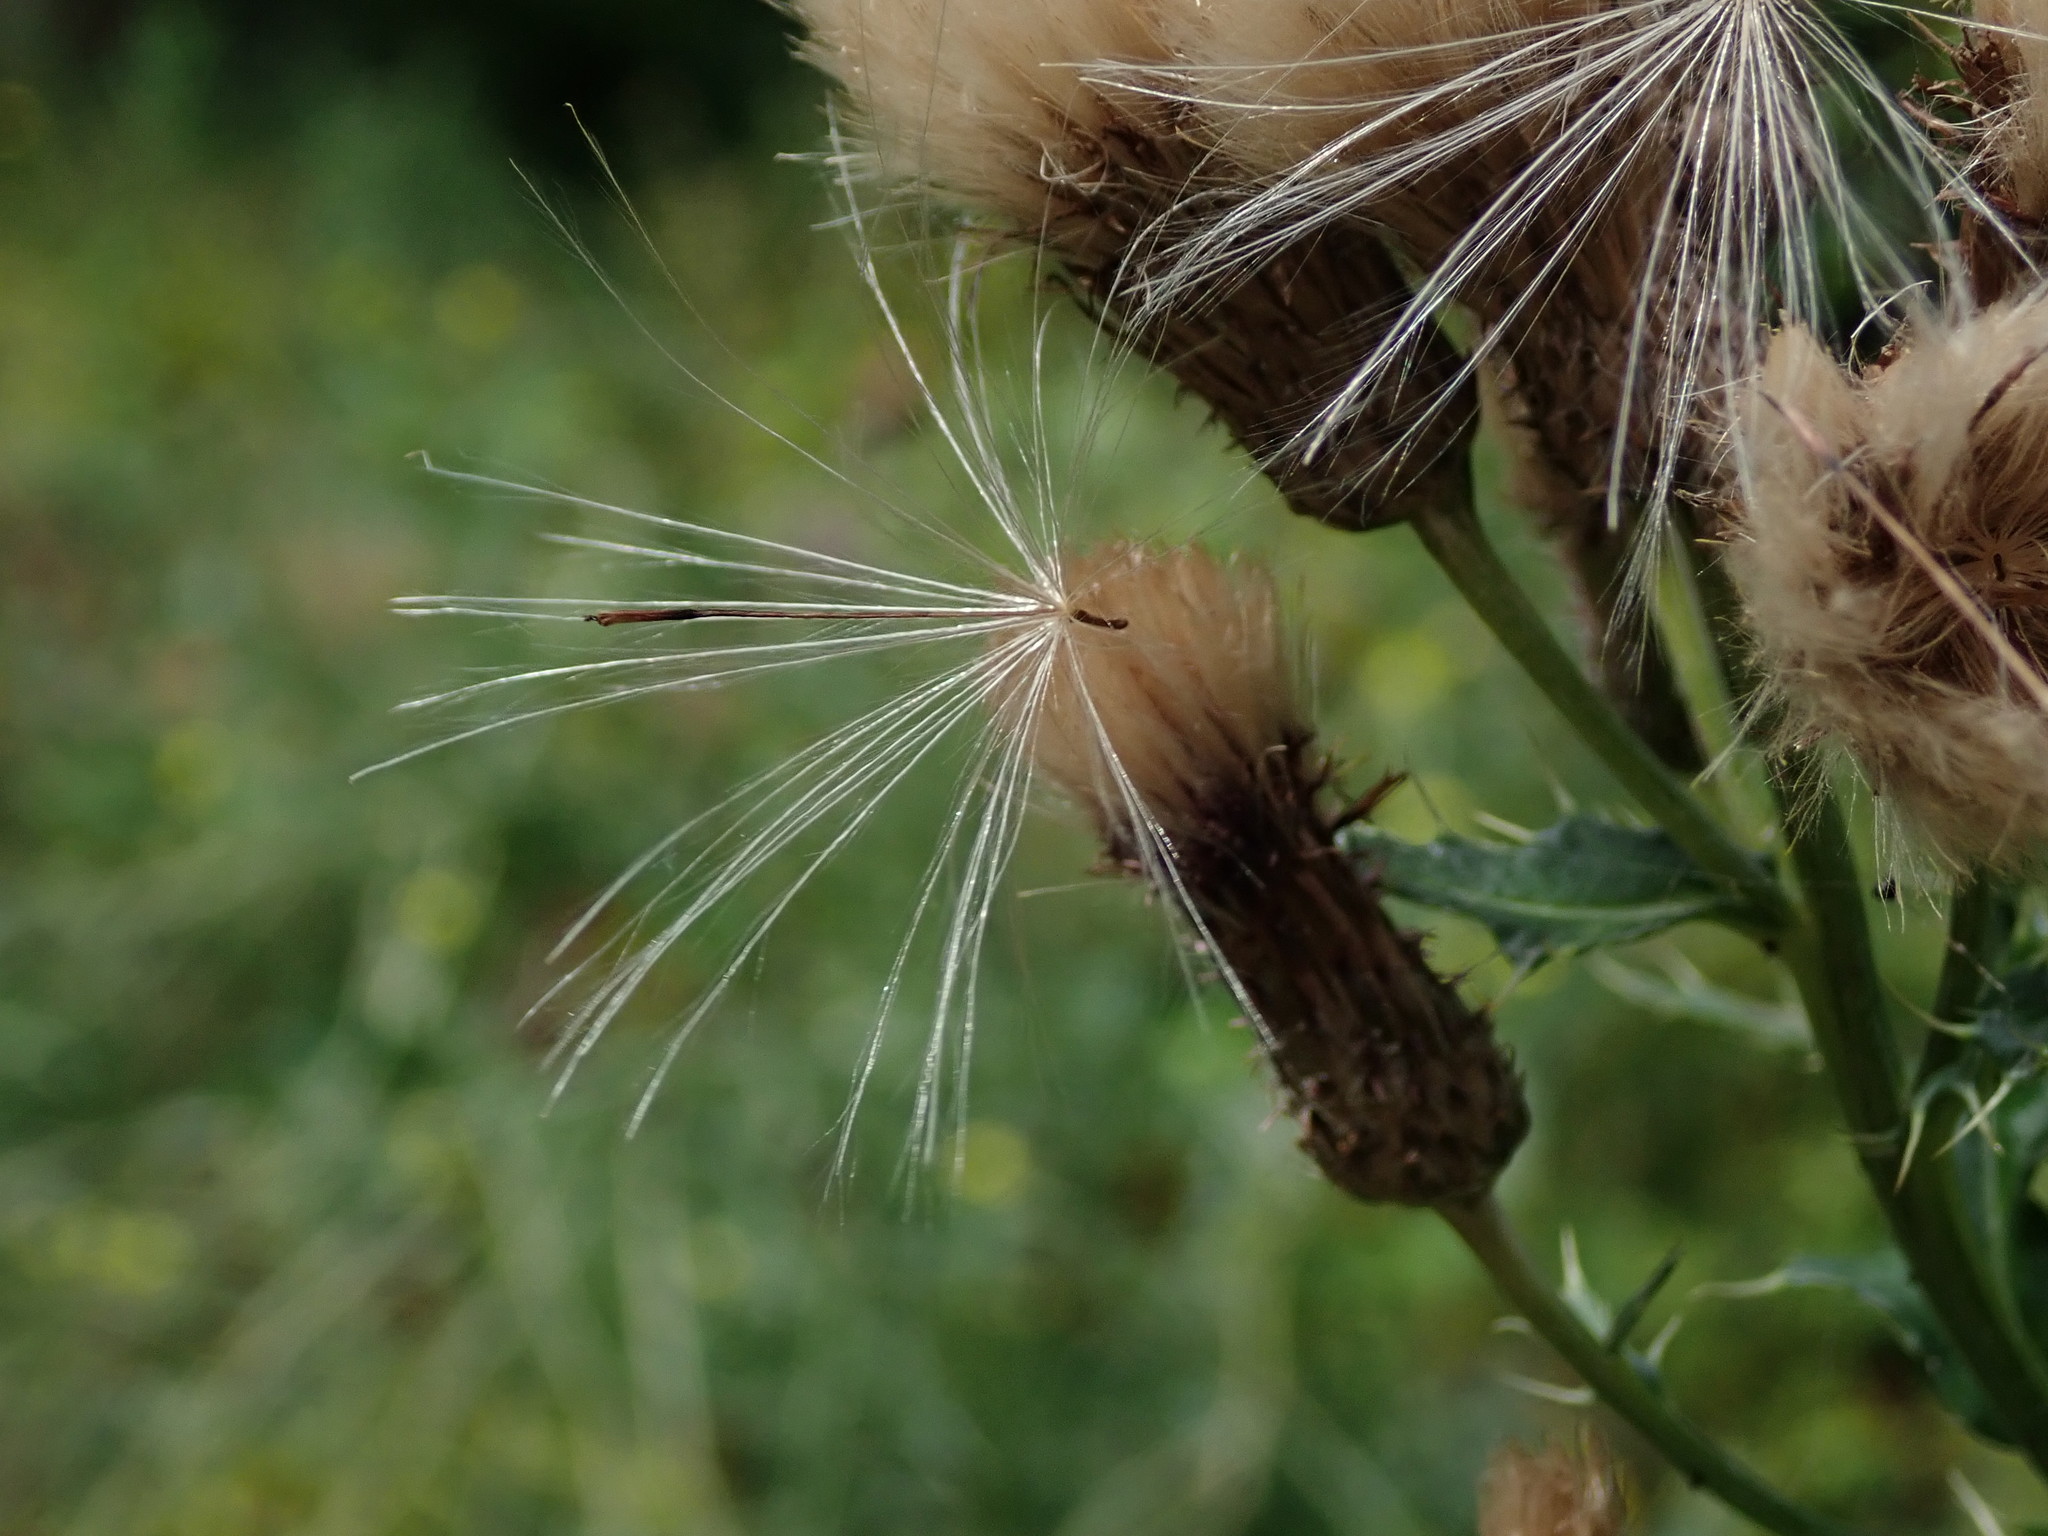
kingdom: Plantae
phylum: Tracheophyta
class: Magnoliopsida
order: Asterales
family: Asteraceae
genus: Cirsium
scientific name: Cirsium arvense
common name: Creeping thistle
